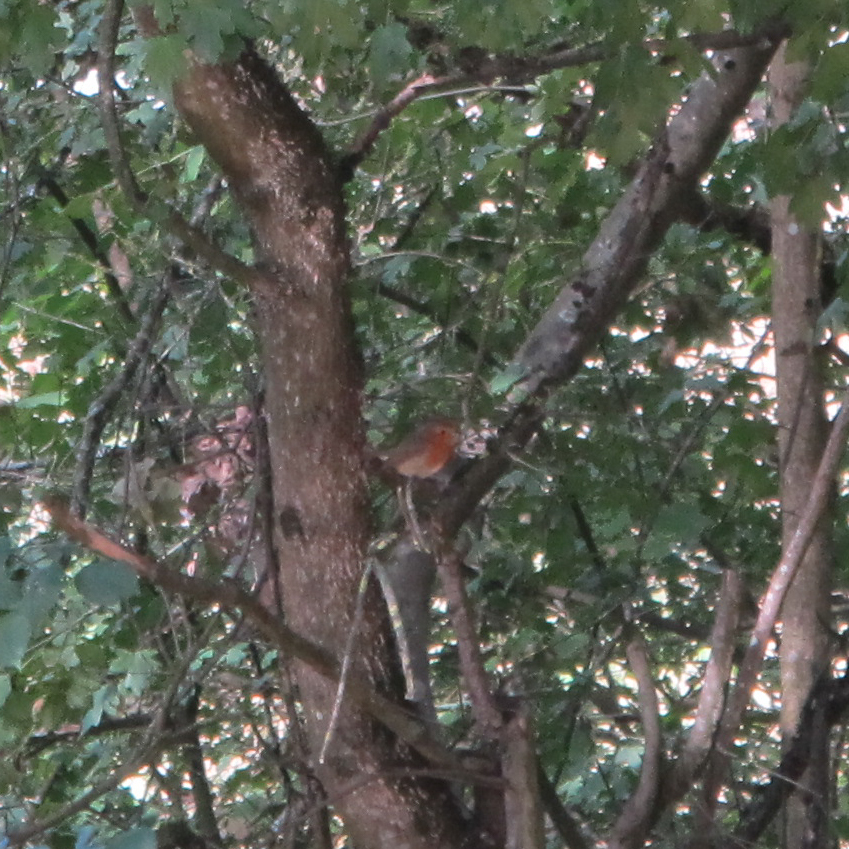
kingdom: Animalia
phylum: Chordata
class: Aves
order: Passeriformes
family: Muscicapidae
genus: Erithacus
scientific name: Erithacus rubecula
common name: European robin
